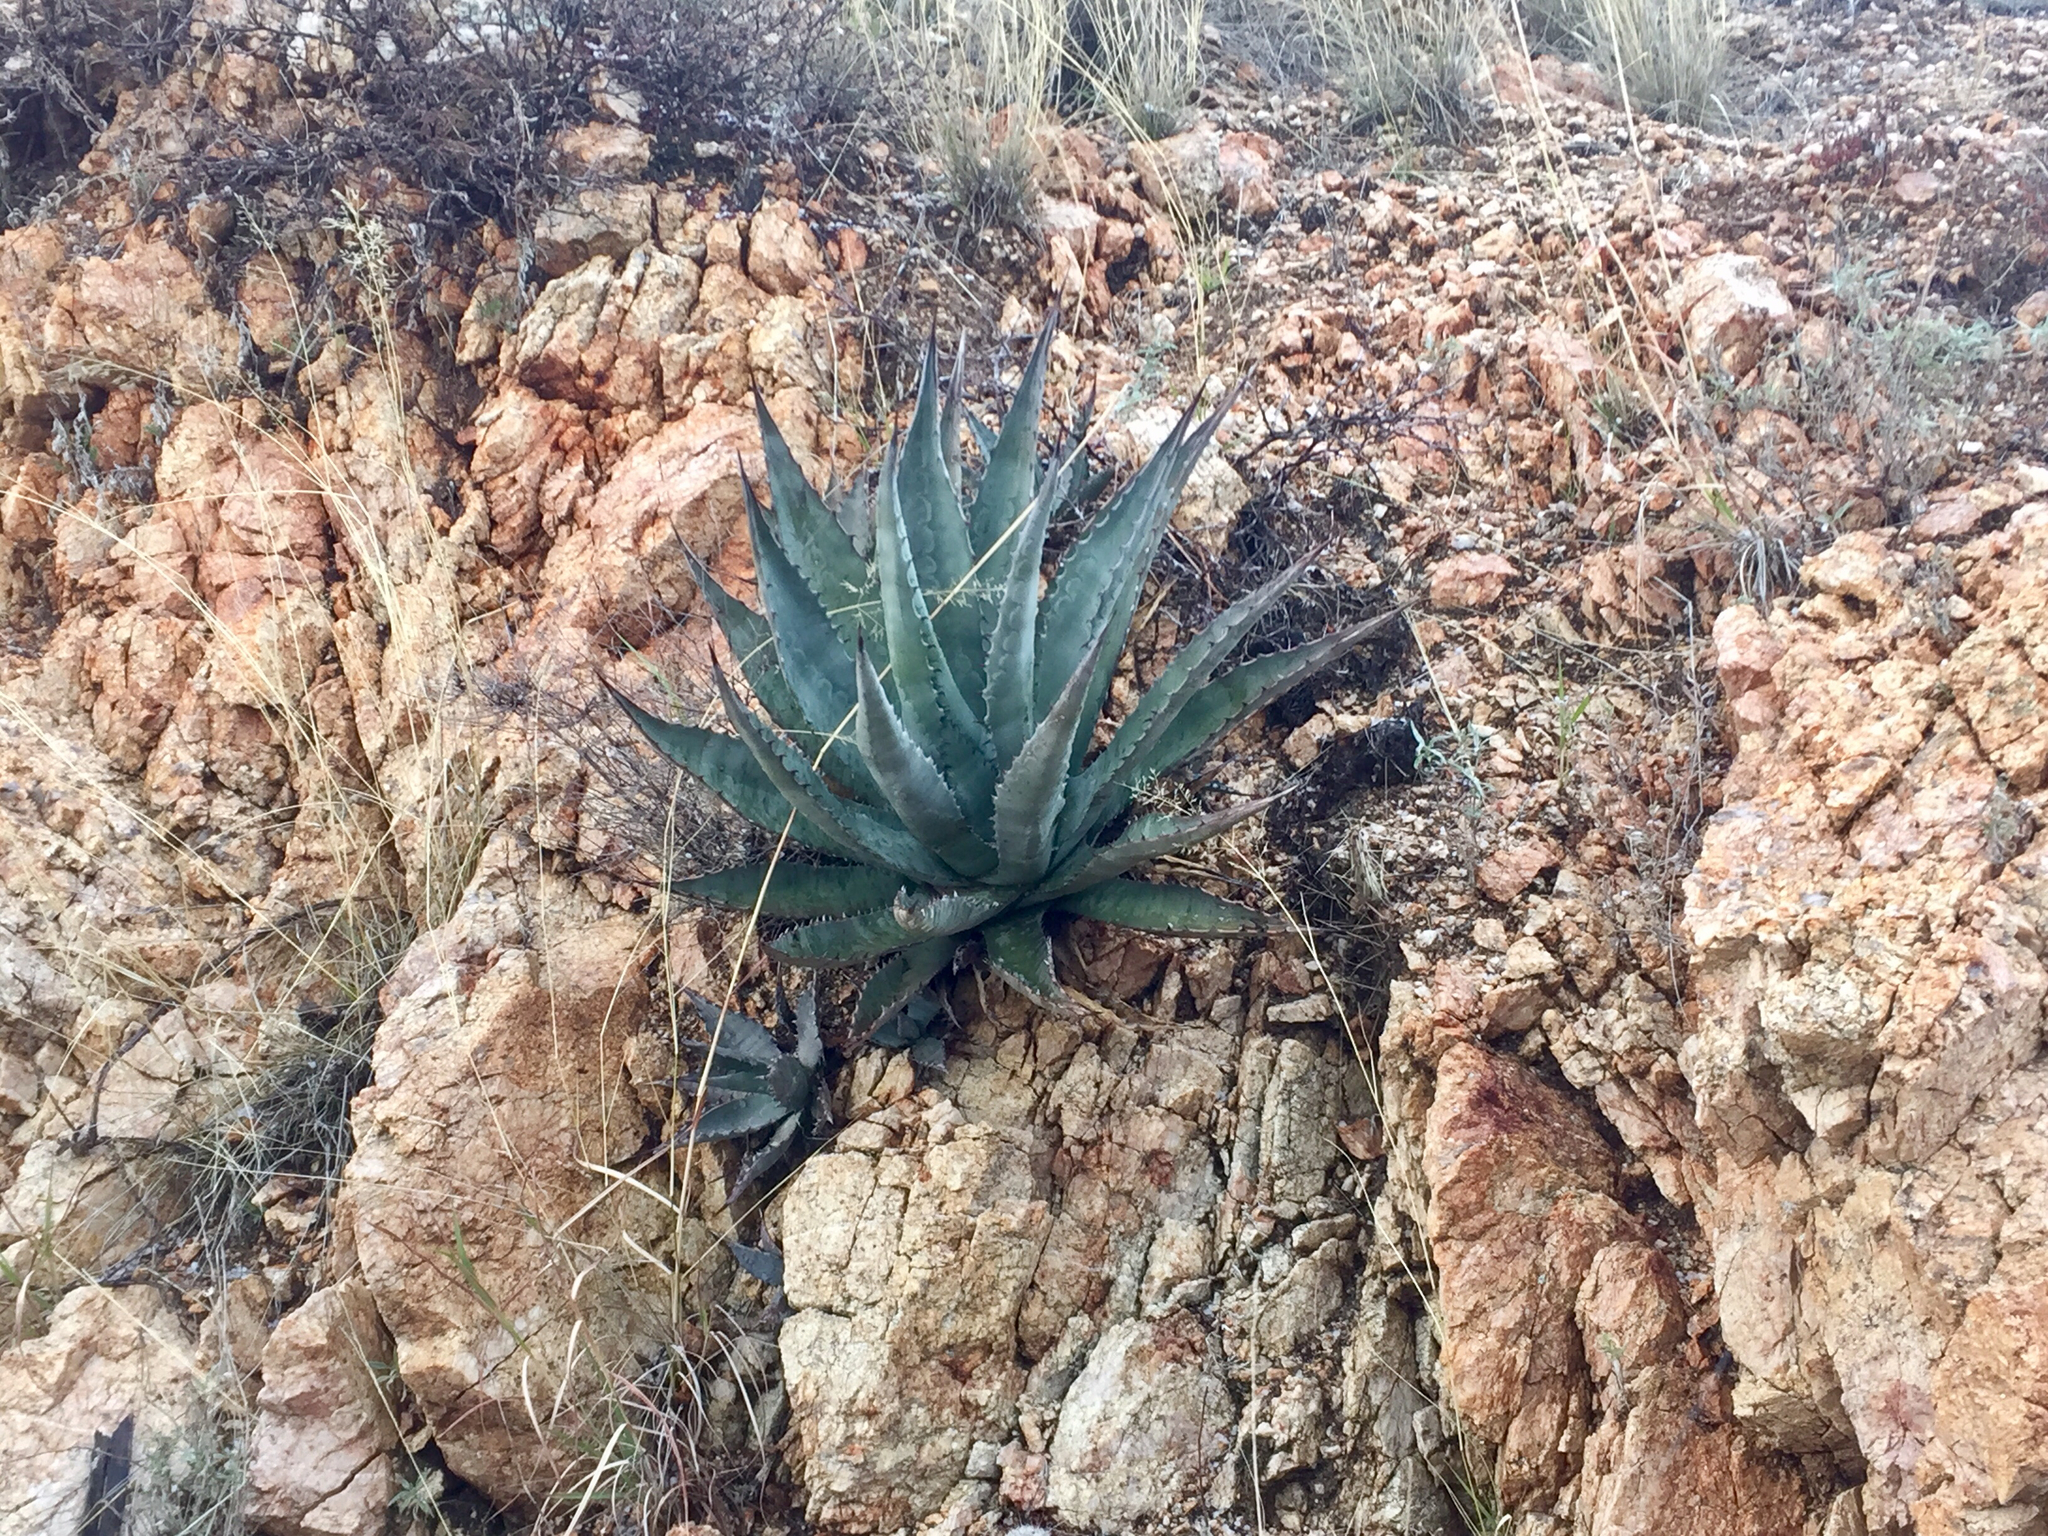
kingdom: Plantae
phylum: Tracheophyta
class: Liliopsida
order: Asparagales
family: Asparagaceae
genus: Agave
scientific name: Agave chrysantha
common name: Golden-flowered agave
